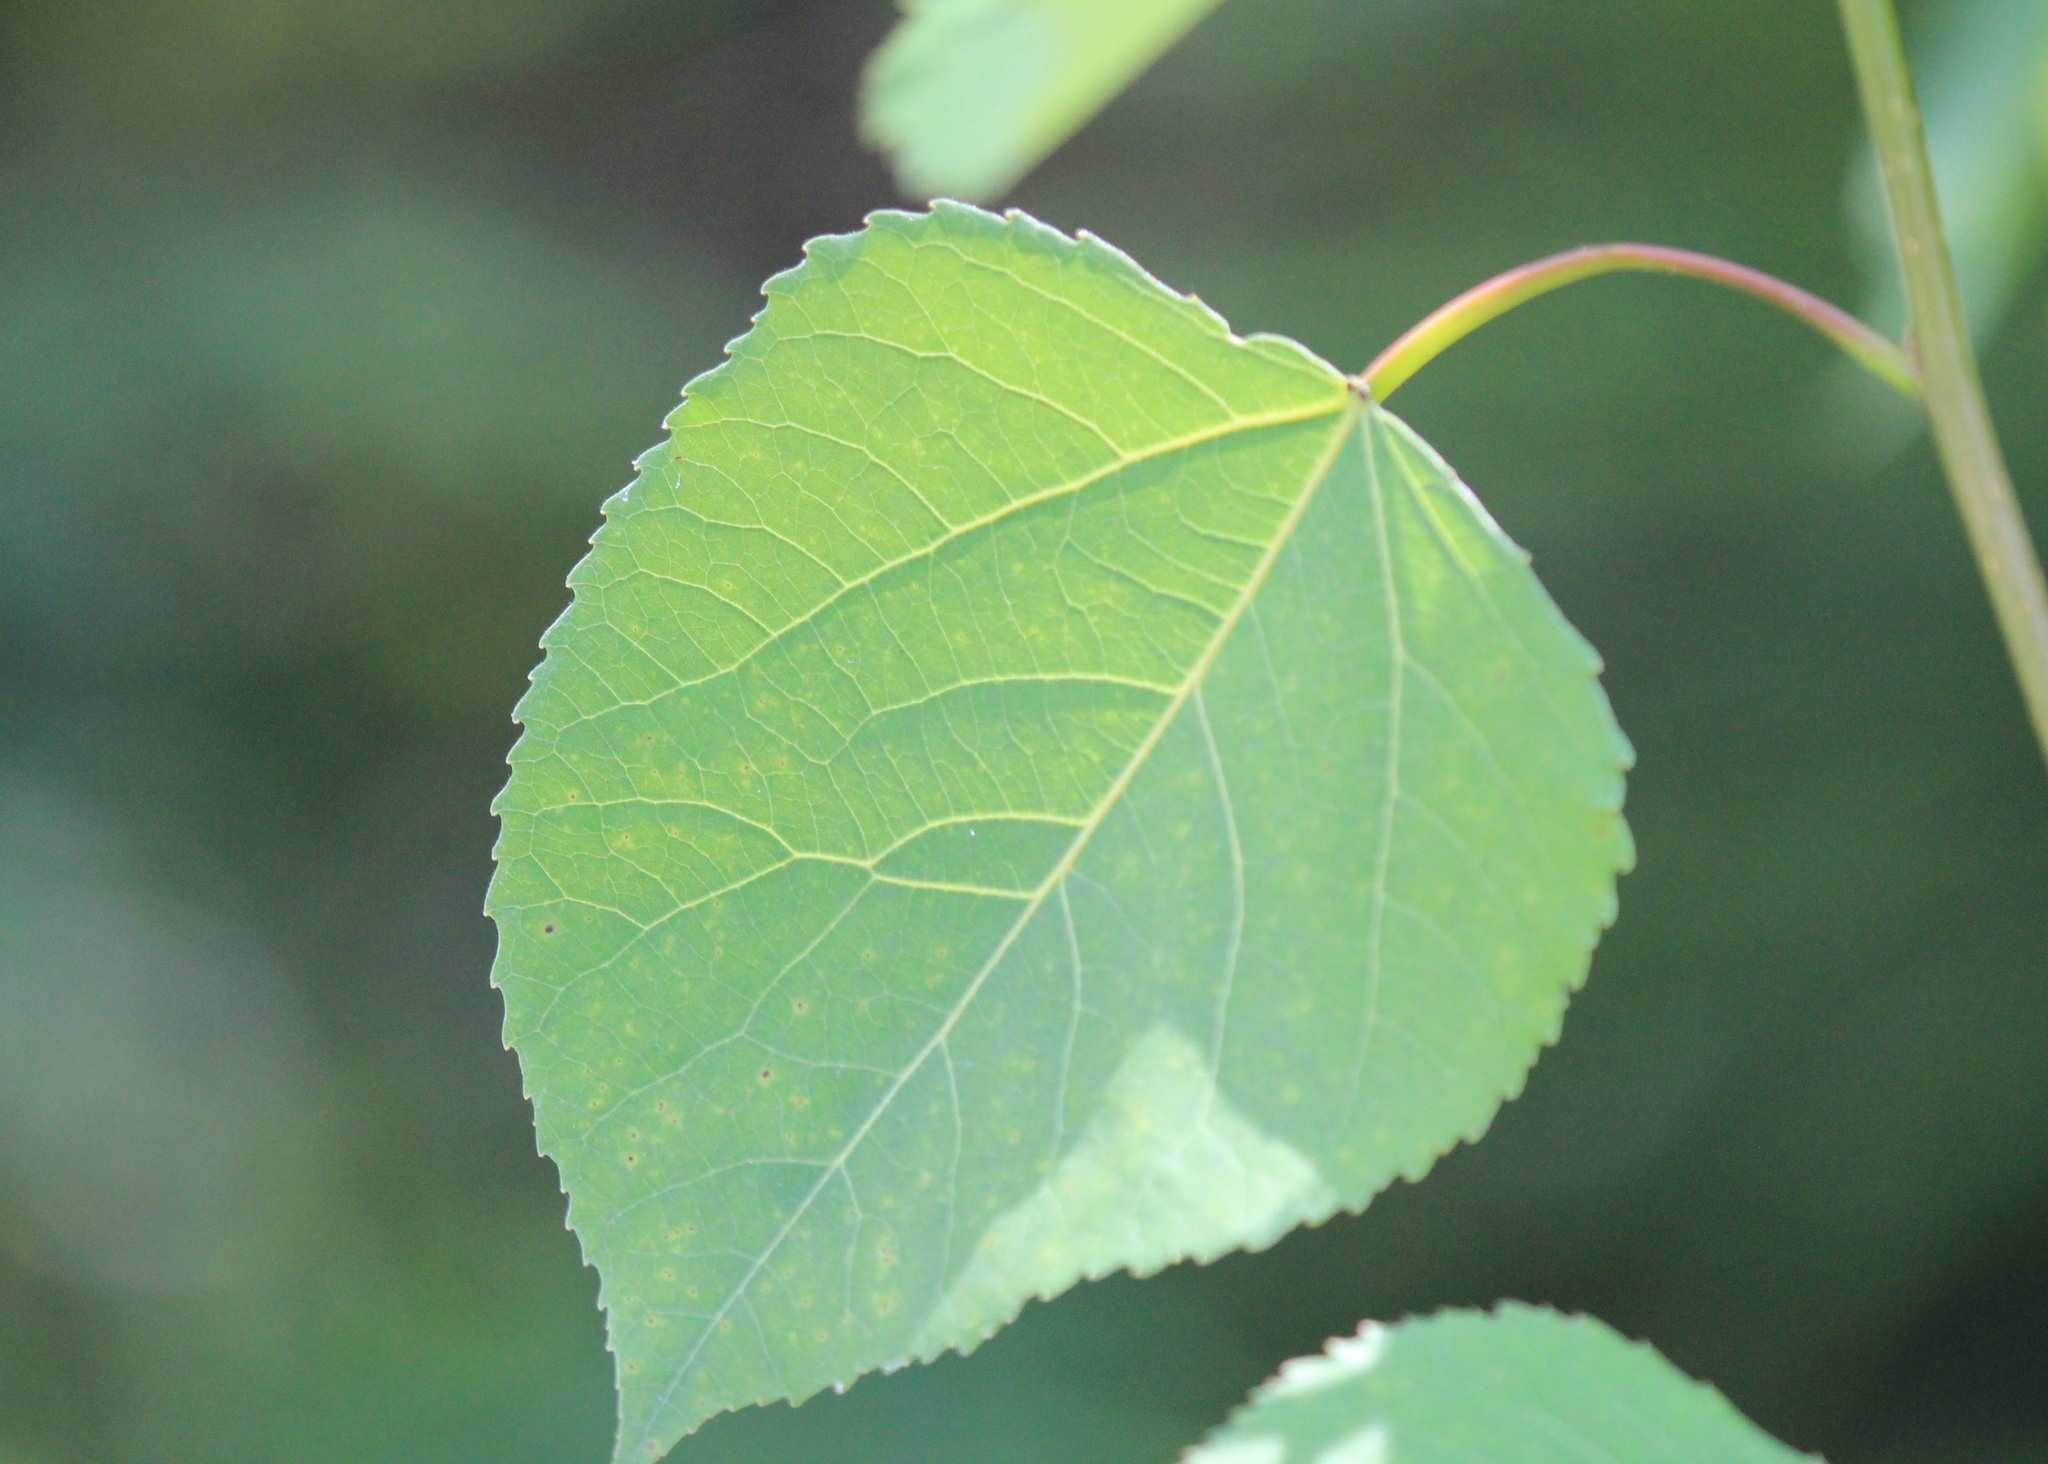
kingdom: Plantae
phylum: Tracheophyta
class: Magnoliopsida
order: Malpighiales
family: Salicaceae
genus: Populus
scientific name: Populus tremuloides
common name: Quaking aspen
